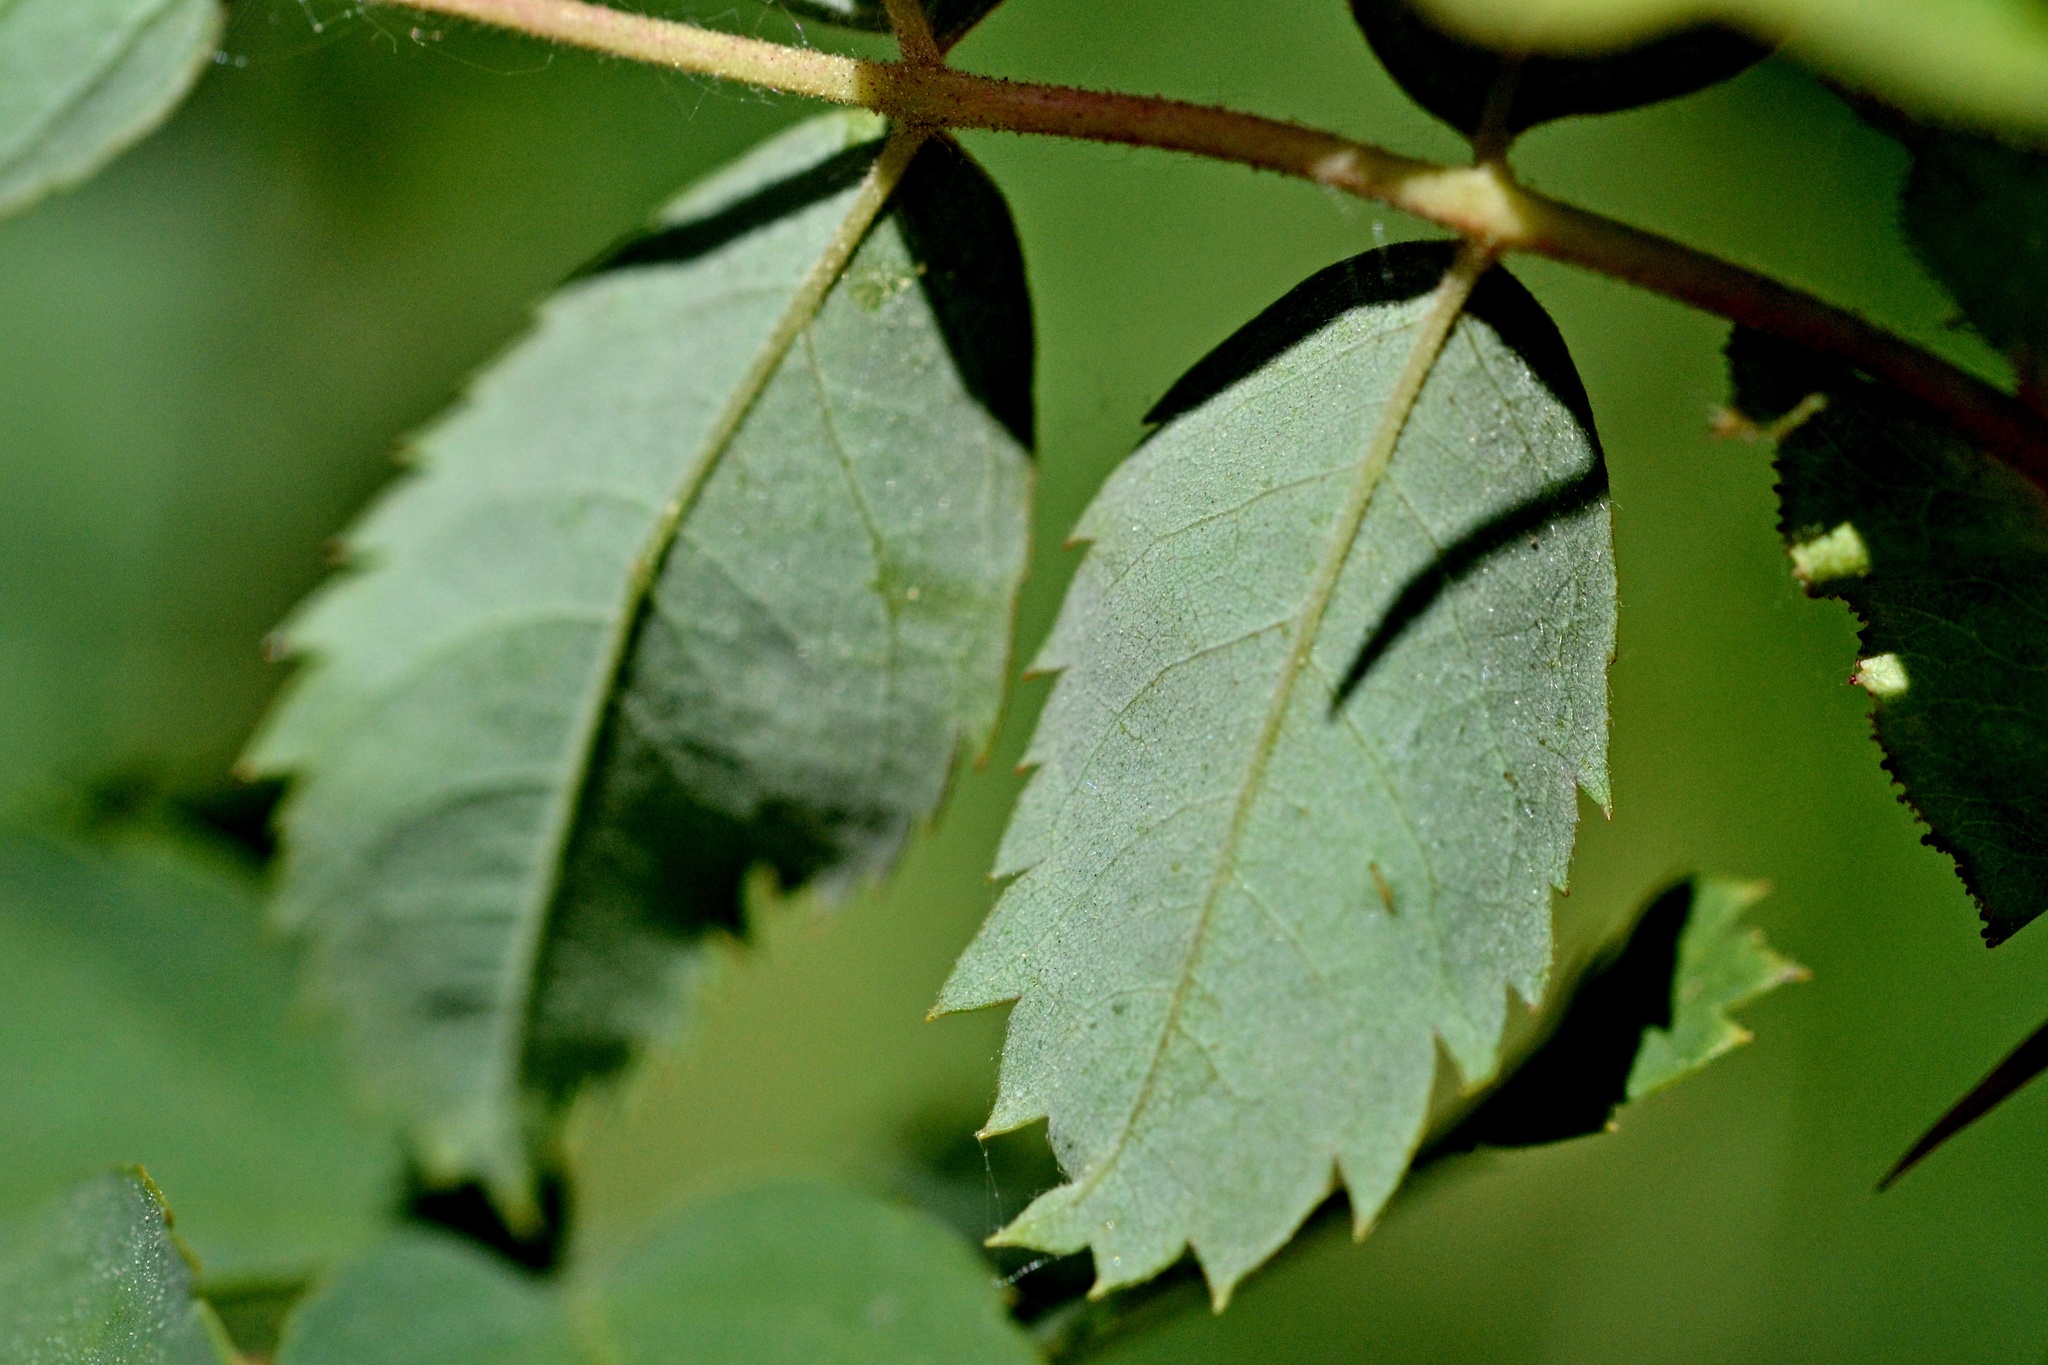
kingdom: Plantae
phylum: Tracheophyta
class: Magnoliopsida
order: Rosales
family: Rosaceae
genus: Rosa
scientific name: Rosa majalis
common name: Cinnamon rose
